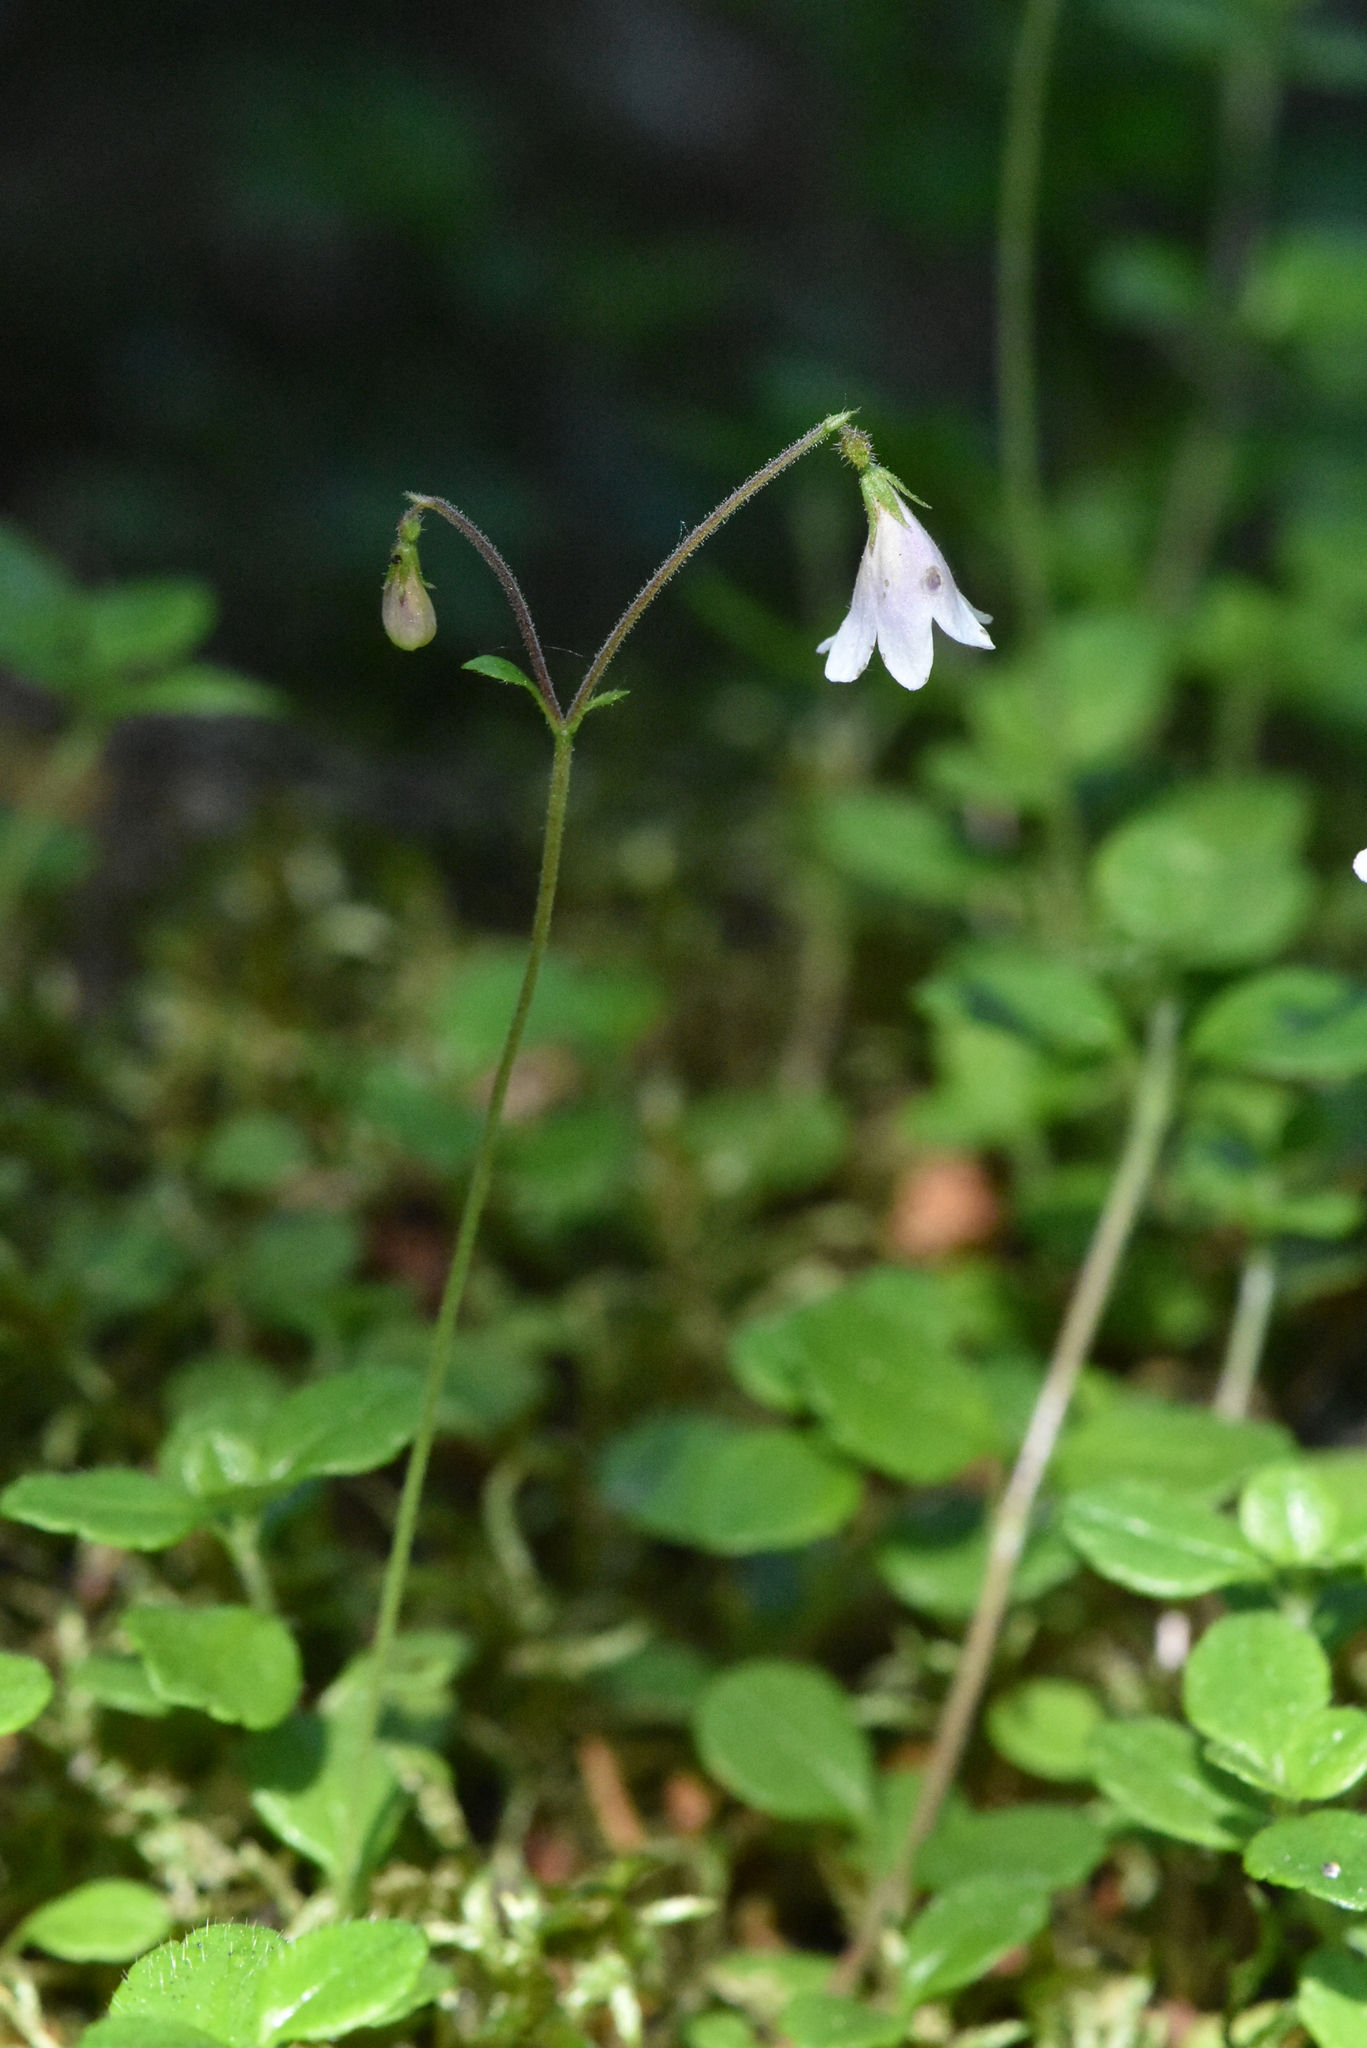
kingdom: Plantae
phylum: Tracheophyta
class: Magnoliopsida
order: Dipsacales
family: Caprifoliaceae
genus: Linnaea
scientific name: Linnaea borealis
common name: Twinflower
